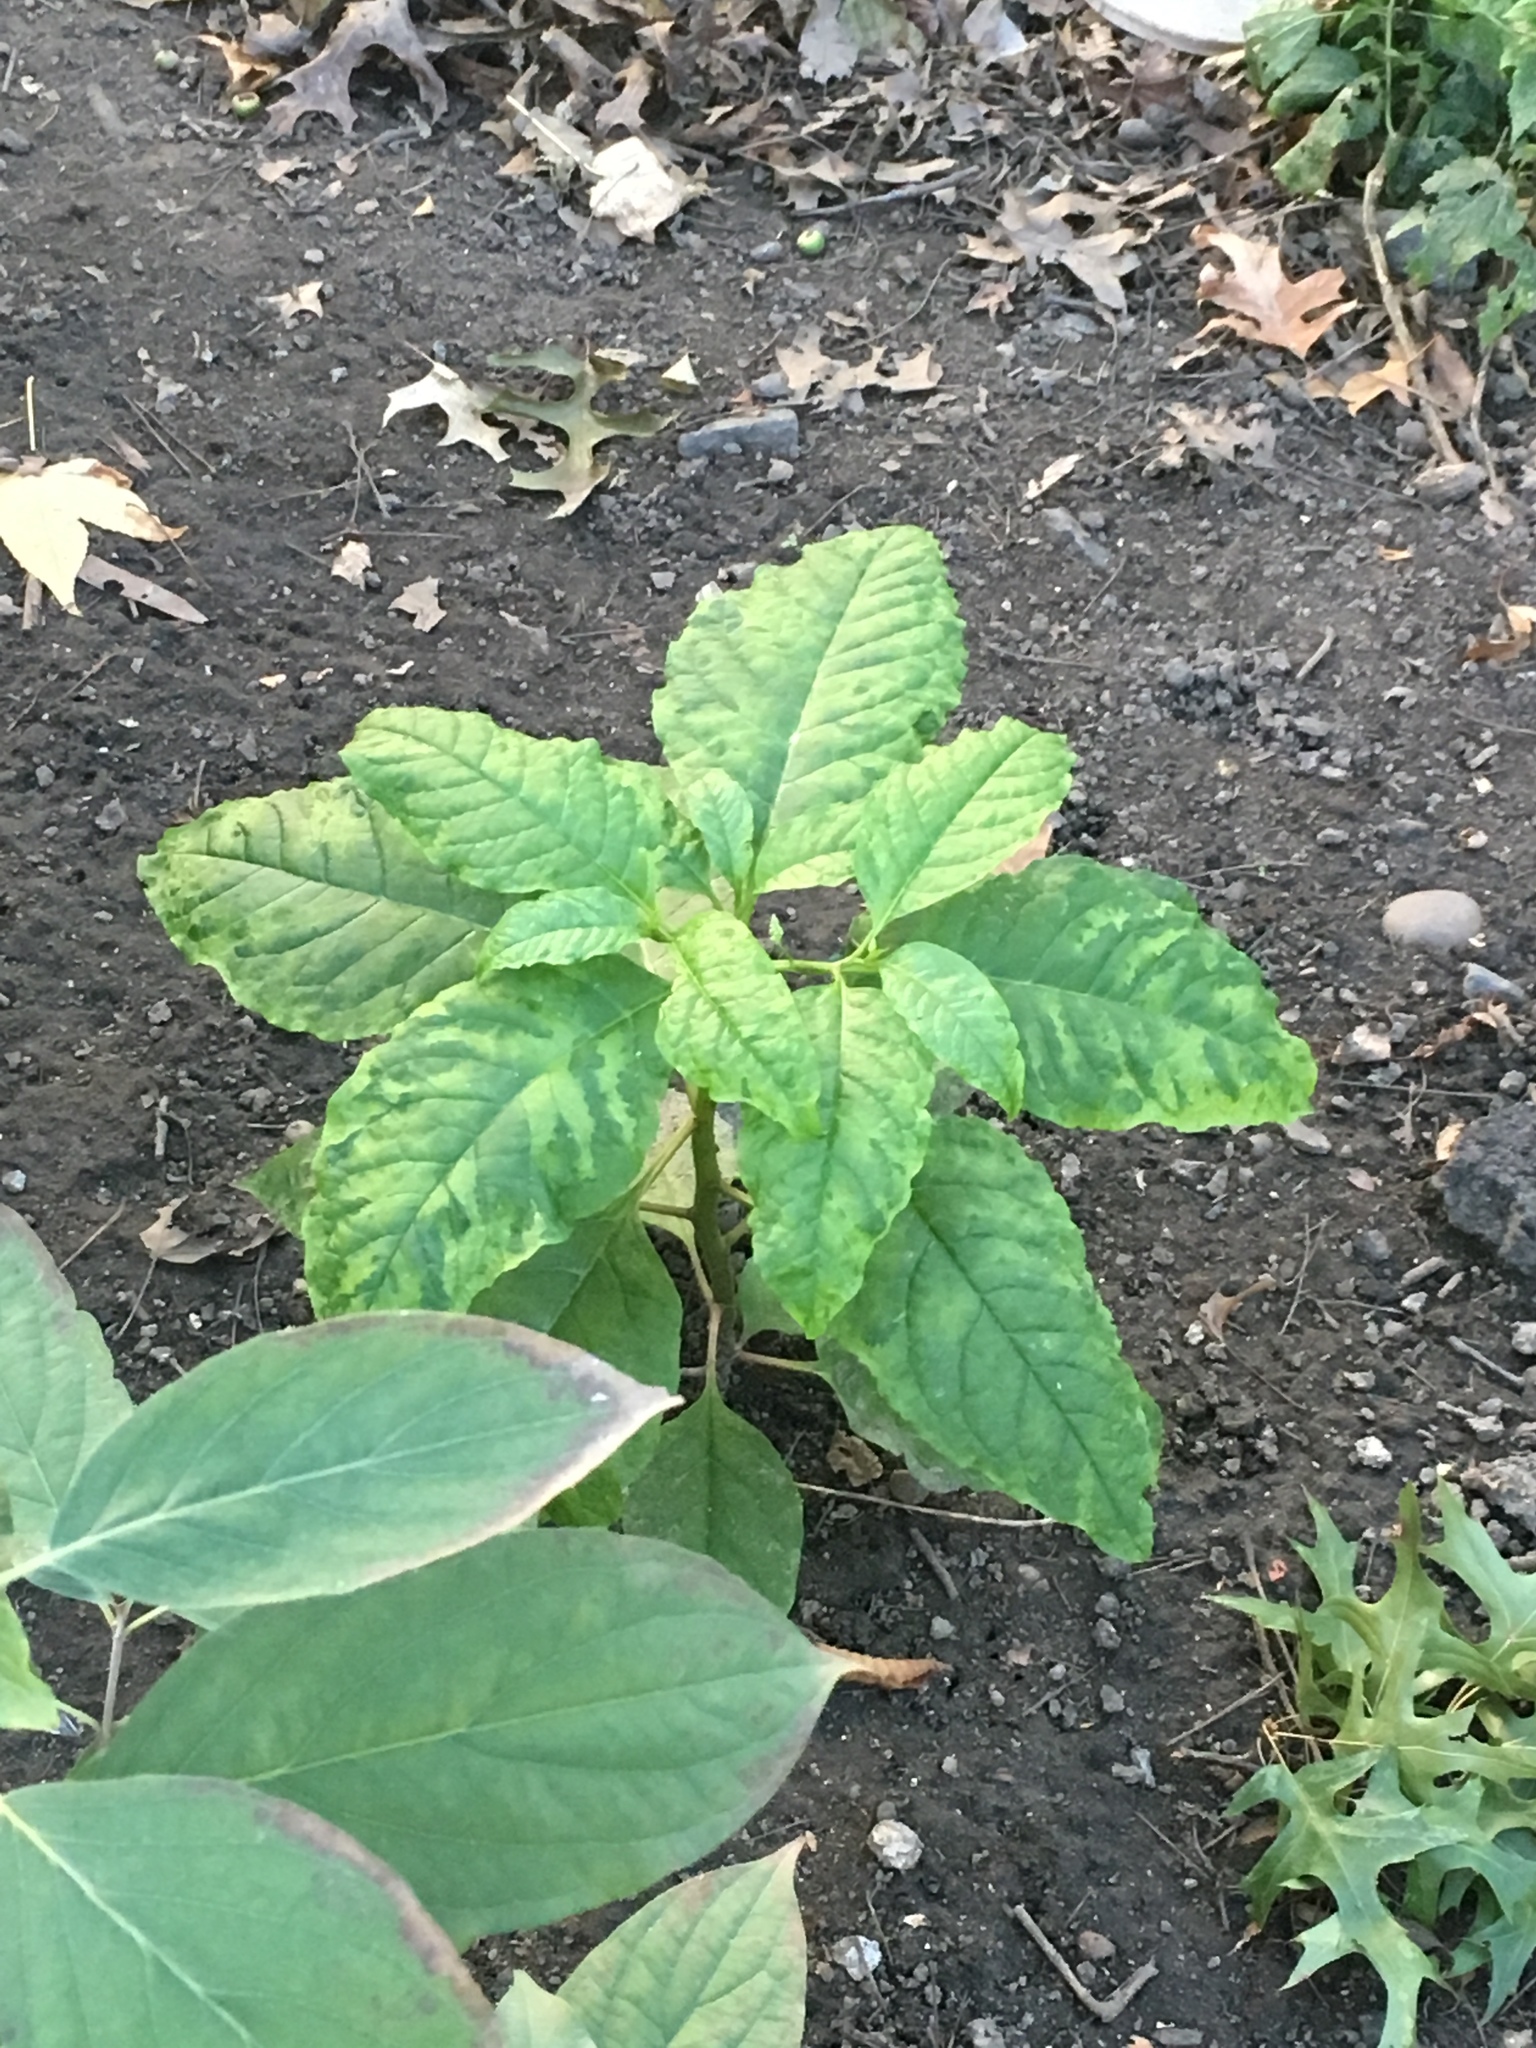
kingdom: Plantae
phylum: Tracheophyta
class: Magnoliopsida
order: Caryophyllales
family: Phytolaccaceae
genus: Phytolacca
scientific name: Phytolacca americana
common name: American pokeweed
